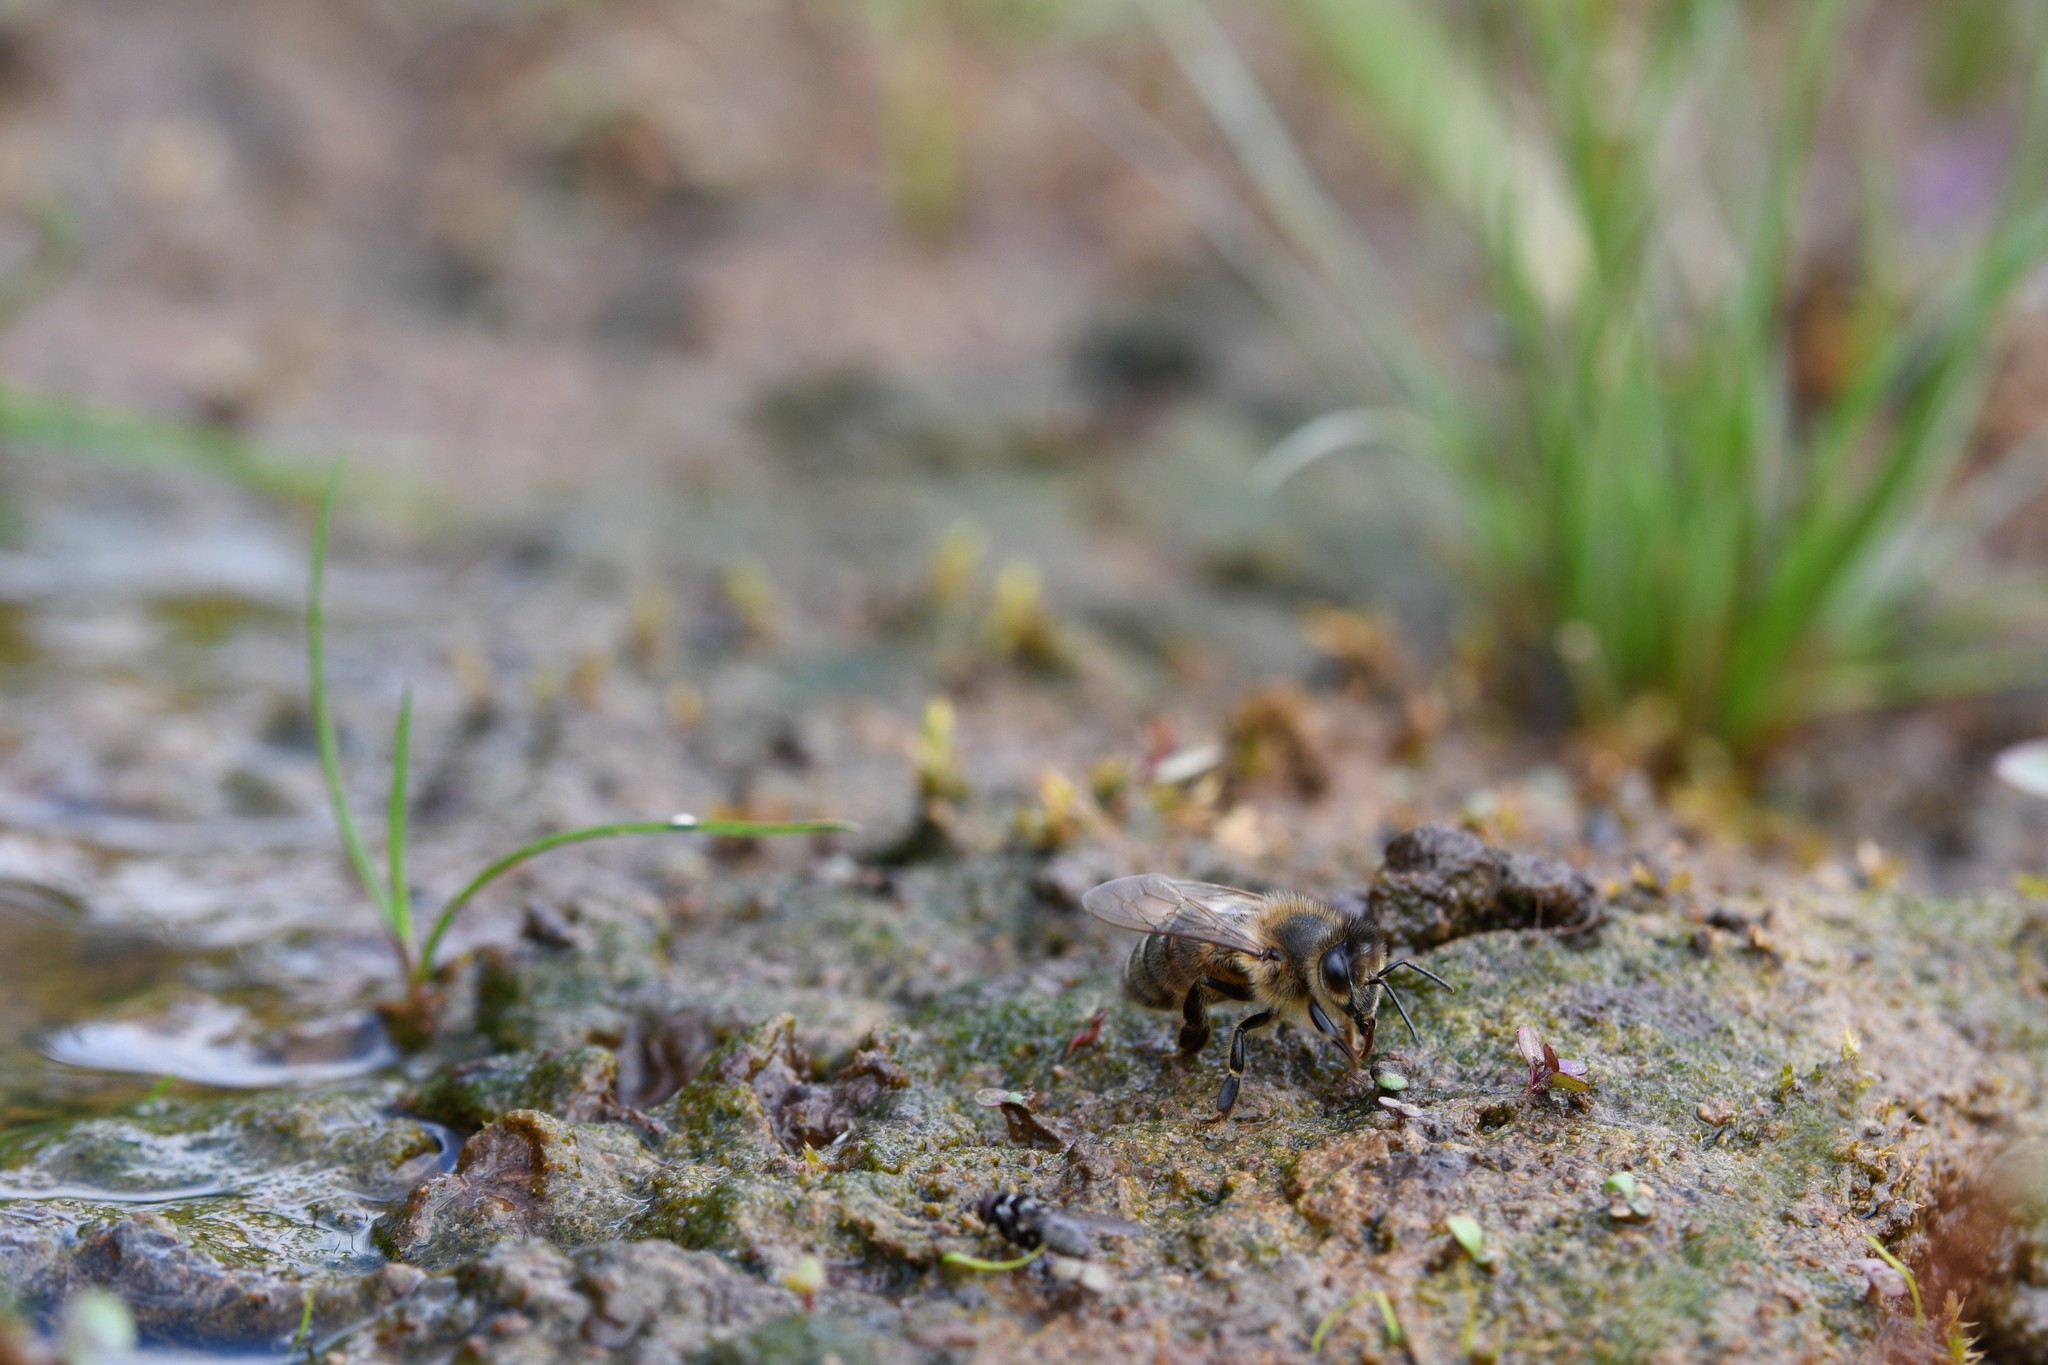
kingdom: Animalia
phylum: Arthropoda
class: Insecta
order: Hymenoptera
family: Apidae
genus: Apis
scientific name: Apis mellifera
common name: Honey bee
